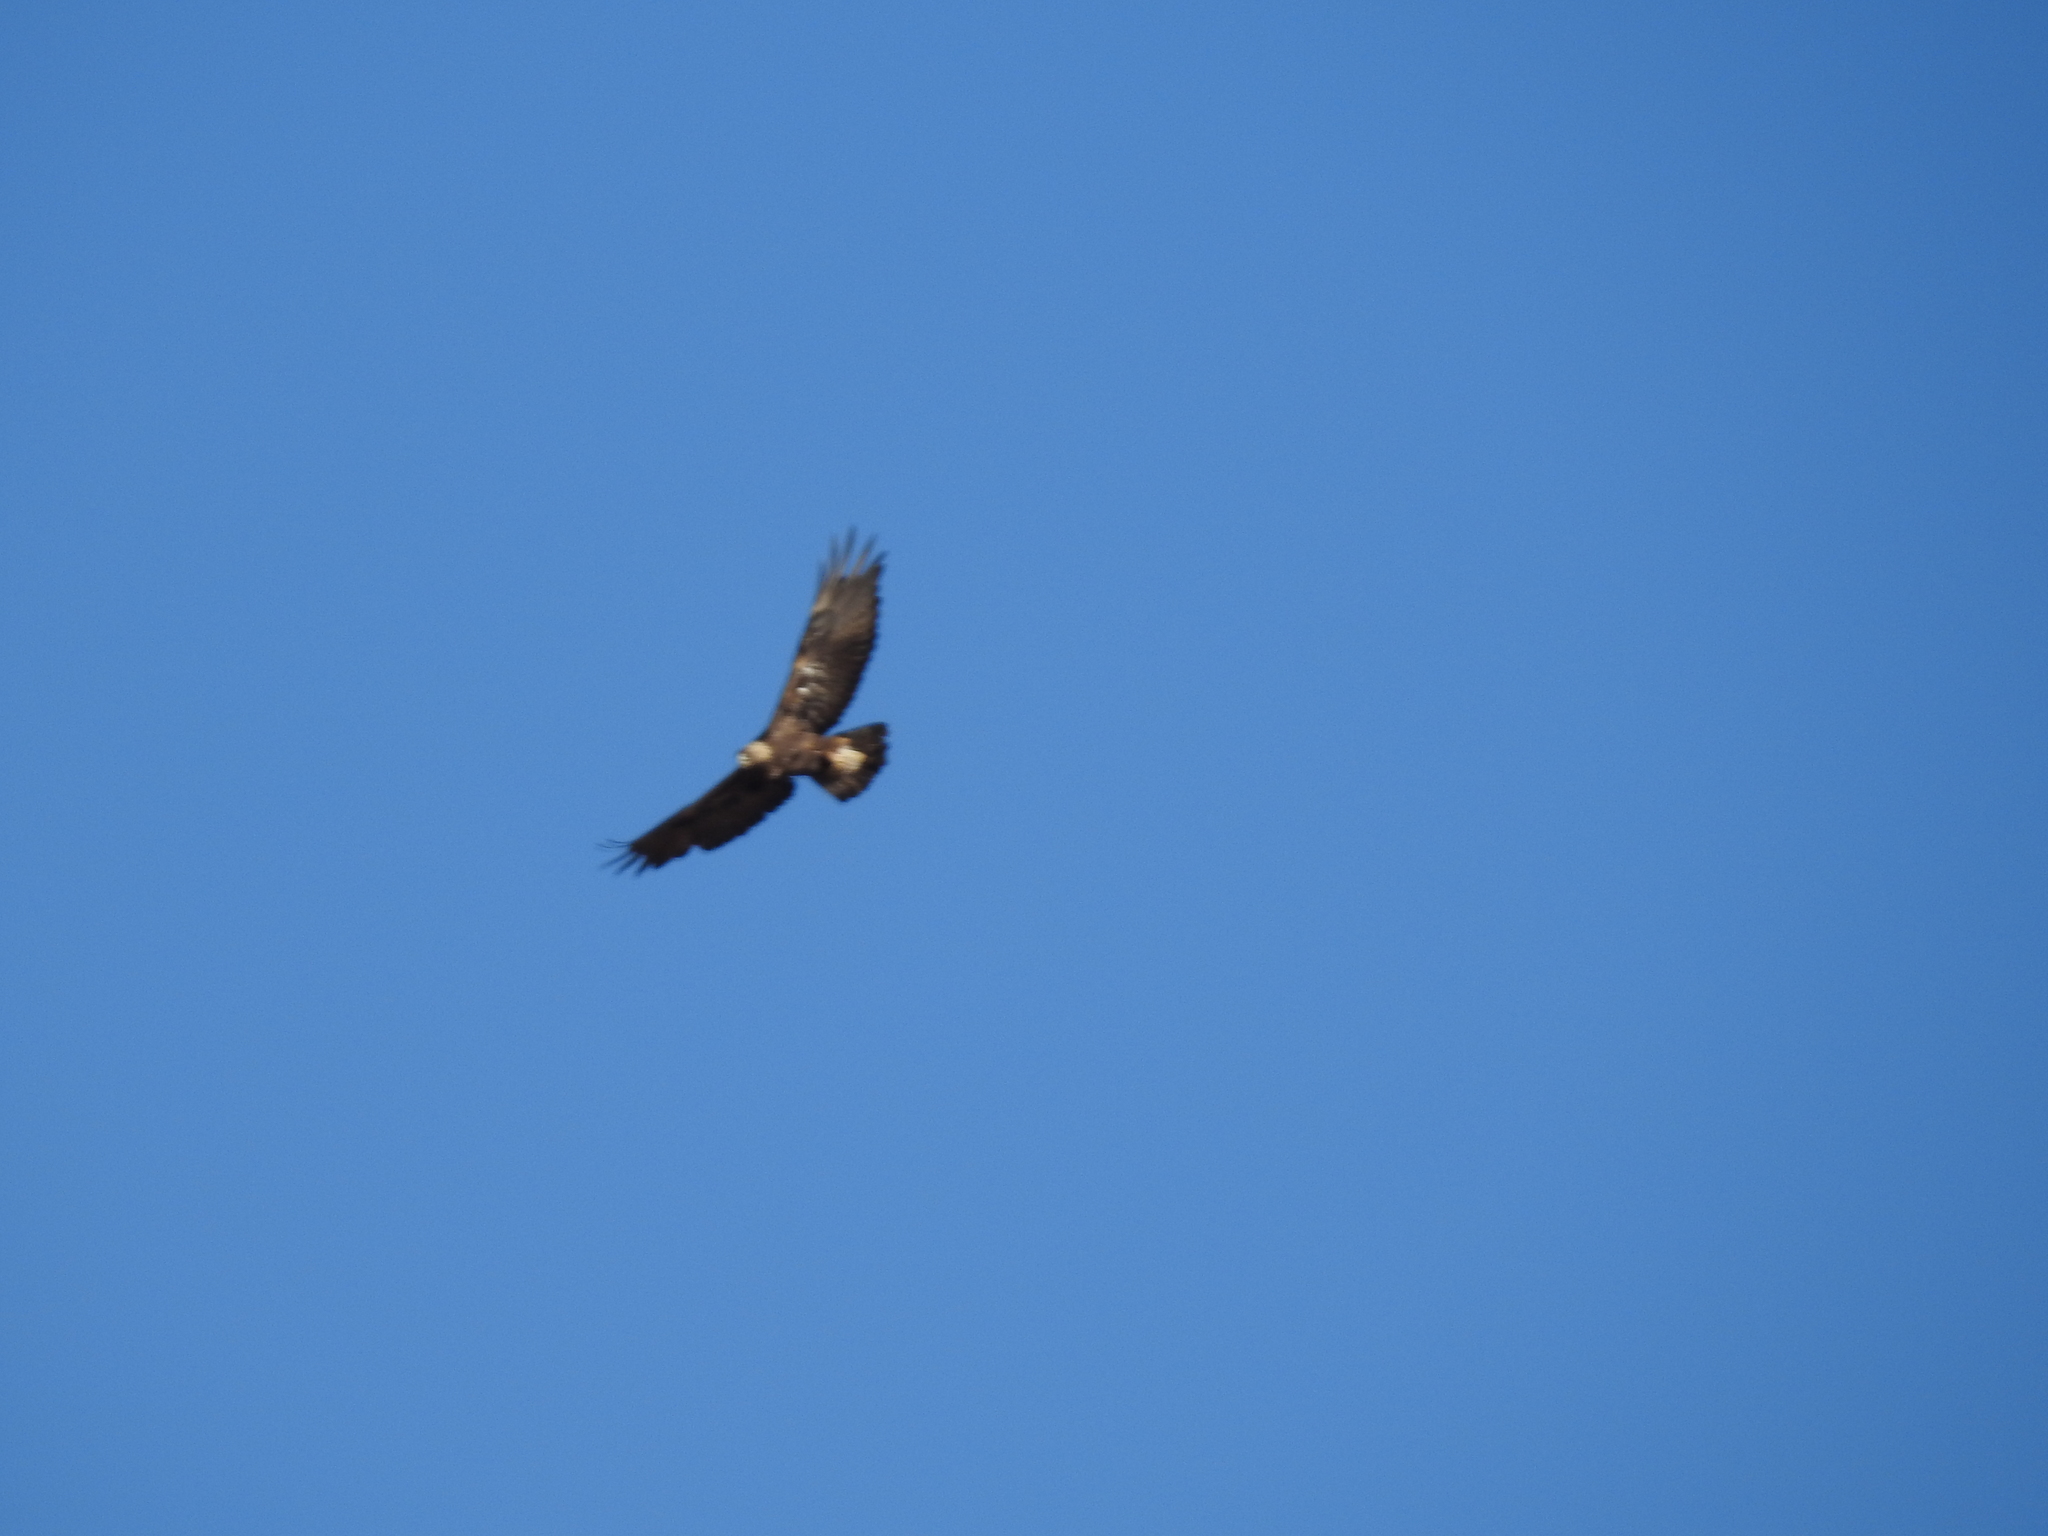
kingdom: Animalia
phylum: Chordata
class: Aves
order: Accipitriformes
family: Accipitridae
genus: Aquila
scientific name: Aquila chrysaetos
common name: Golden eagle
